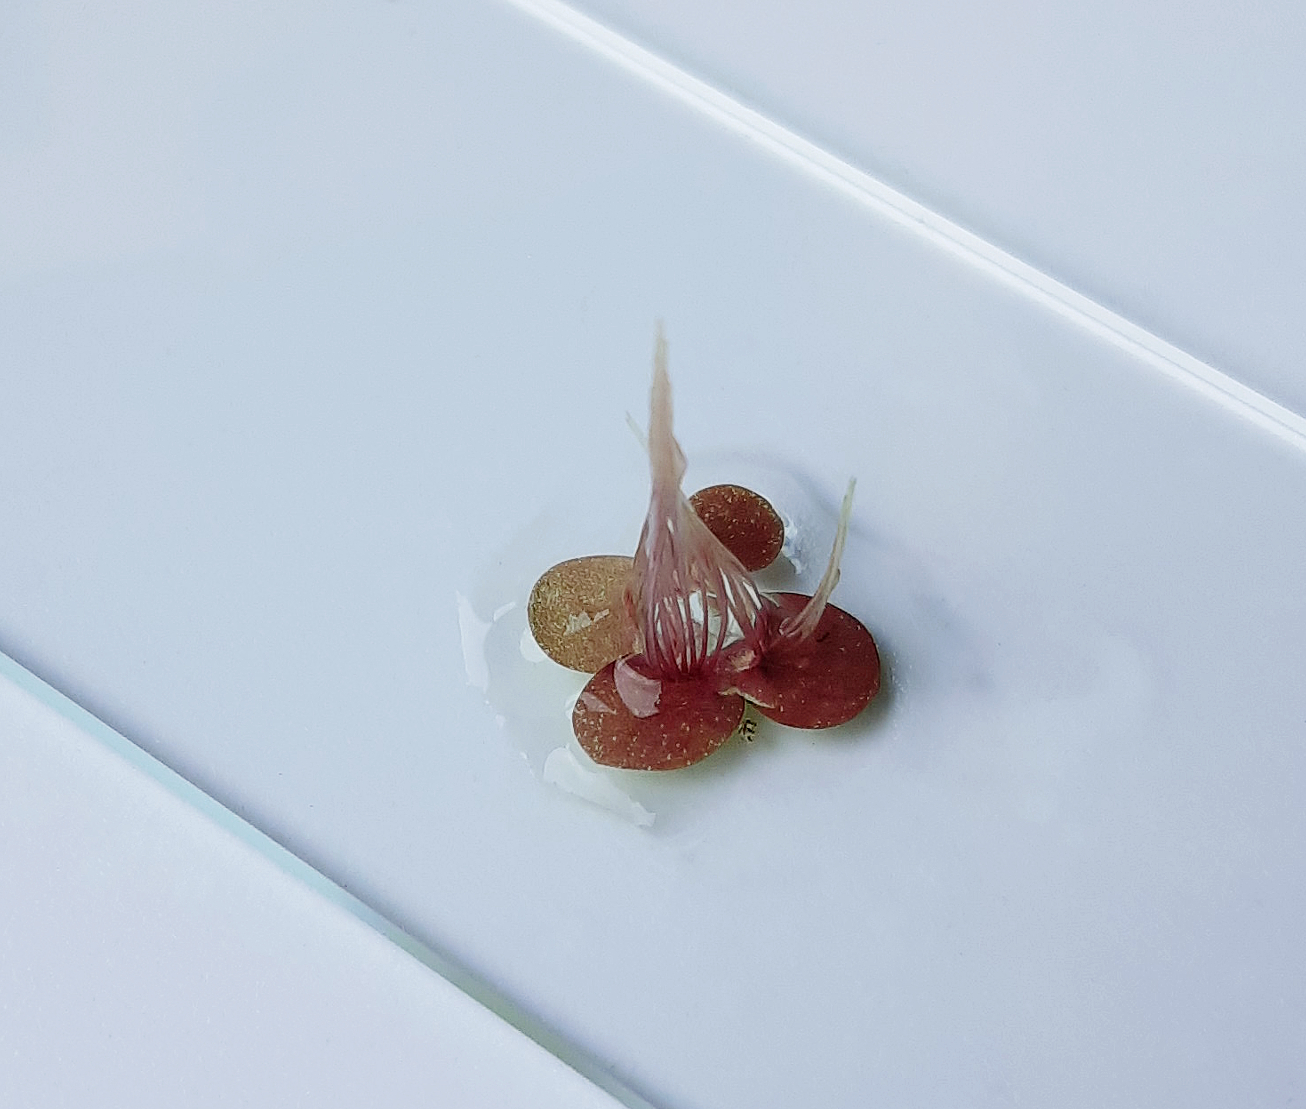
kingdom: Plantae
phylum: Tracheophyta
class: Liliopsida
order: Alismatales
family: Araceae
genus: Spirodela
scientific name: Spirodela polyrhiza
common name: Great duckweed
